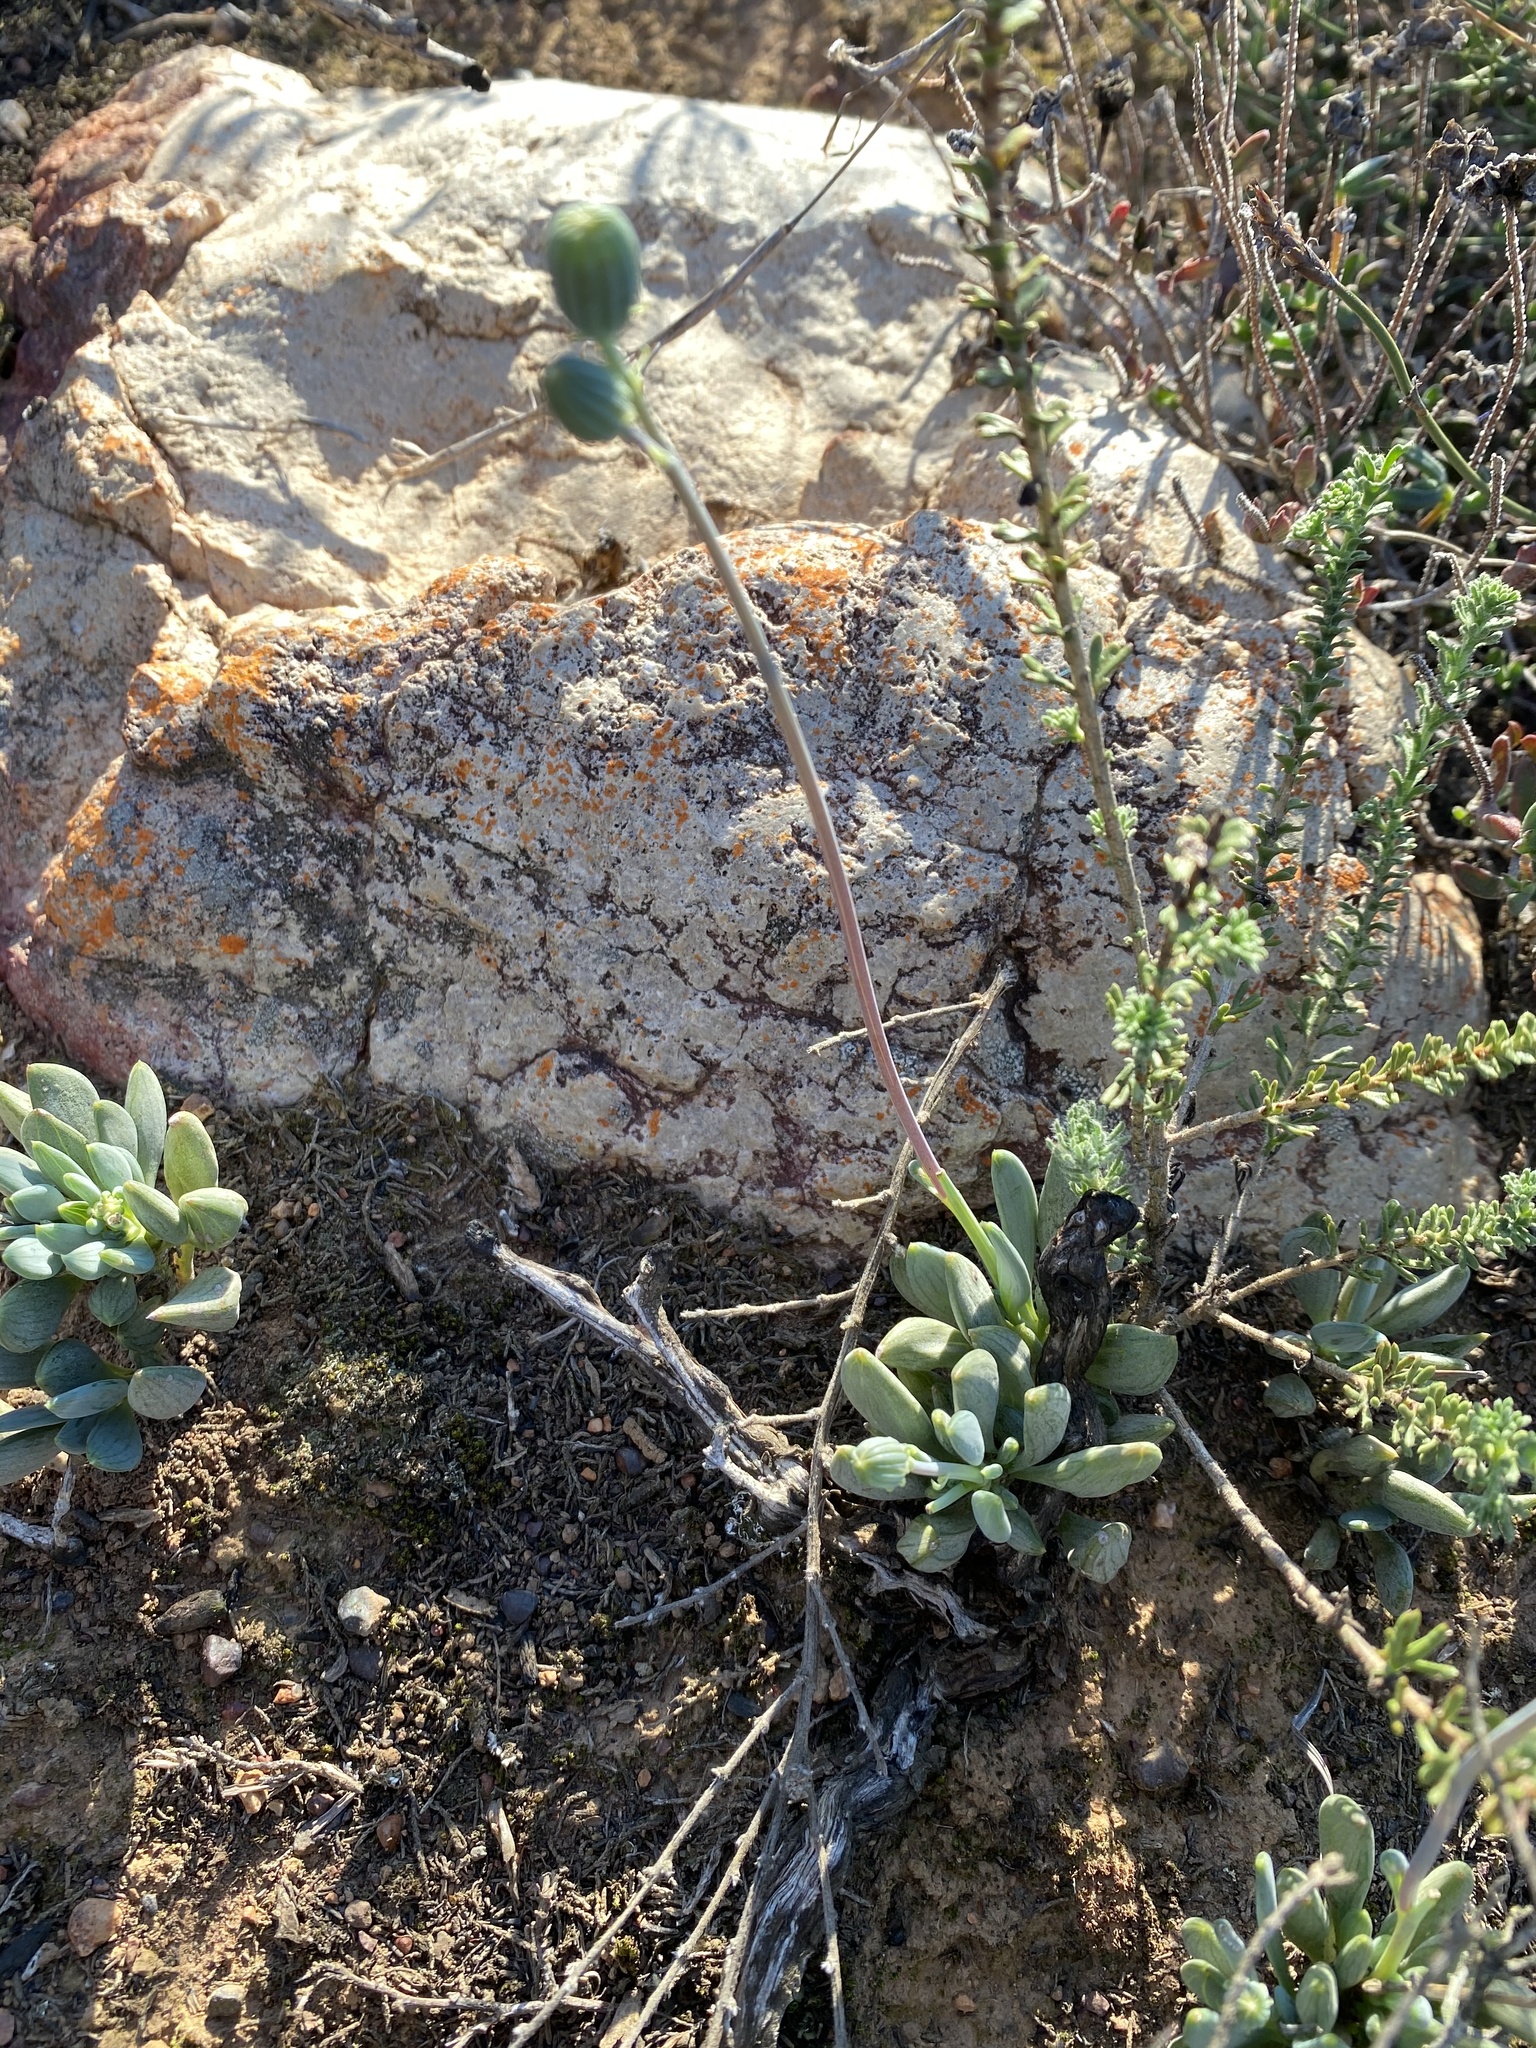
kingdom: Plantae
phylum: Tracheophyta
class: Magnoliopsida
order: Asterales
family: Asteraceae
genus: Curio
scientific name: Curio archeri
